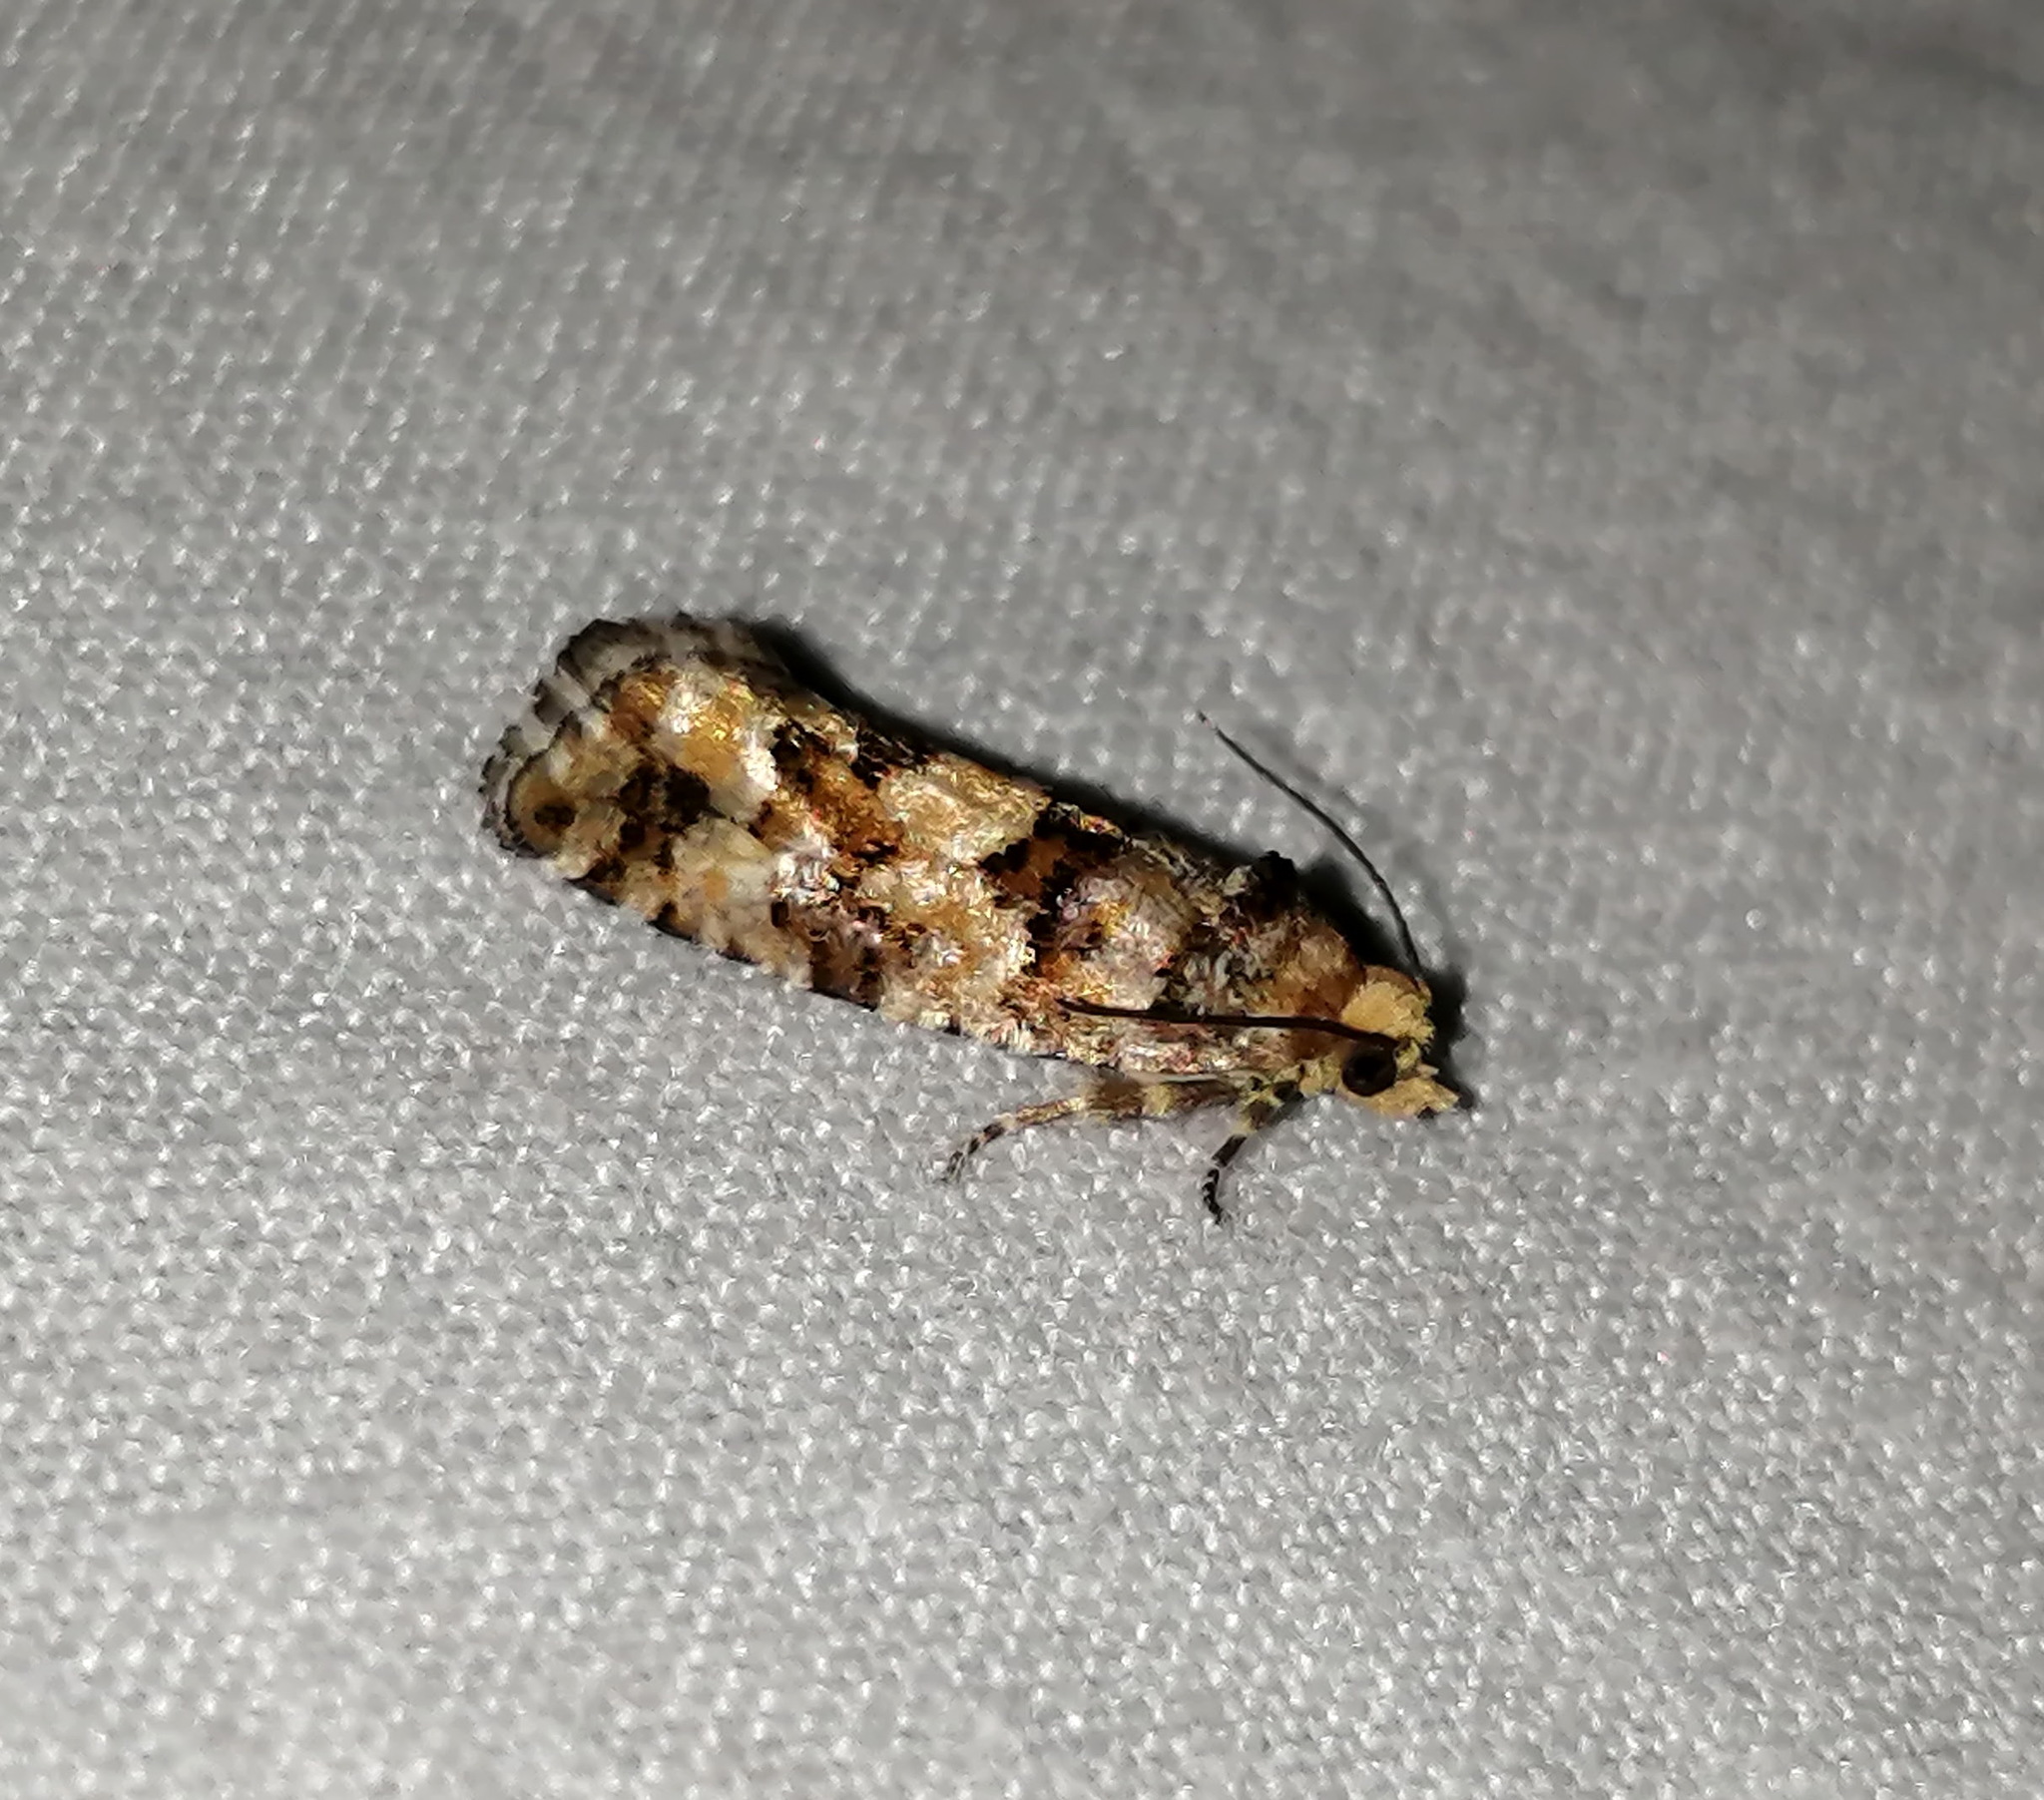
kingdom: Animalia
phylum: Arthropoda
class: Insecta
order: Lepidoptera
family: Tortricidae
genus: Eucopina
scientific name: Eucopina tocullionana
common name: White pinecone borer moth
